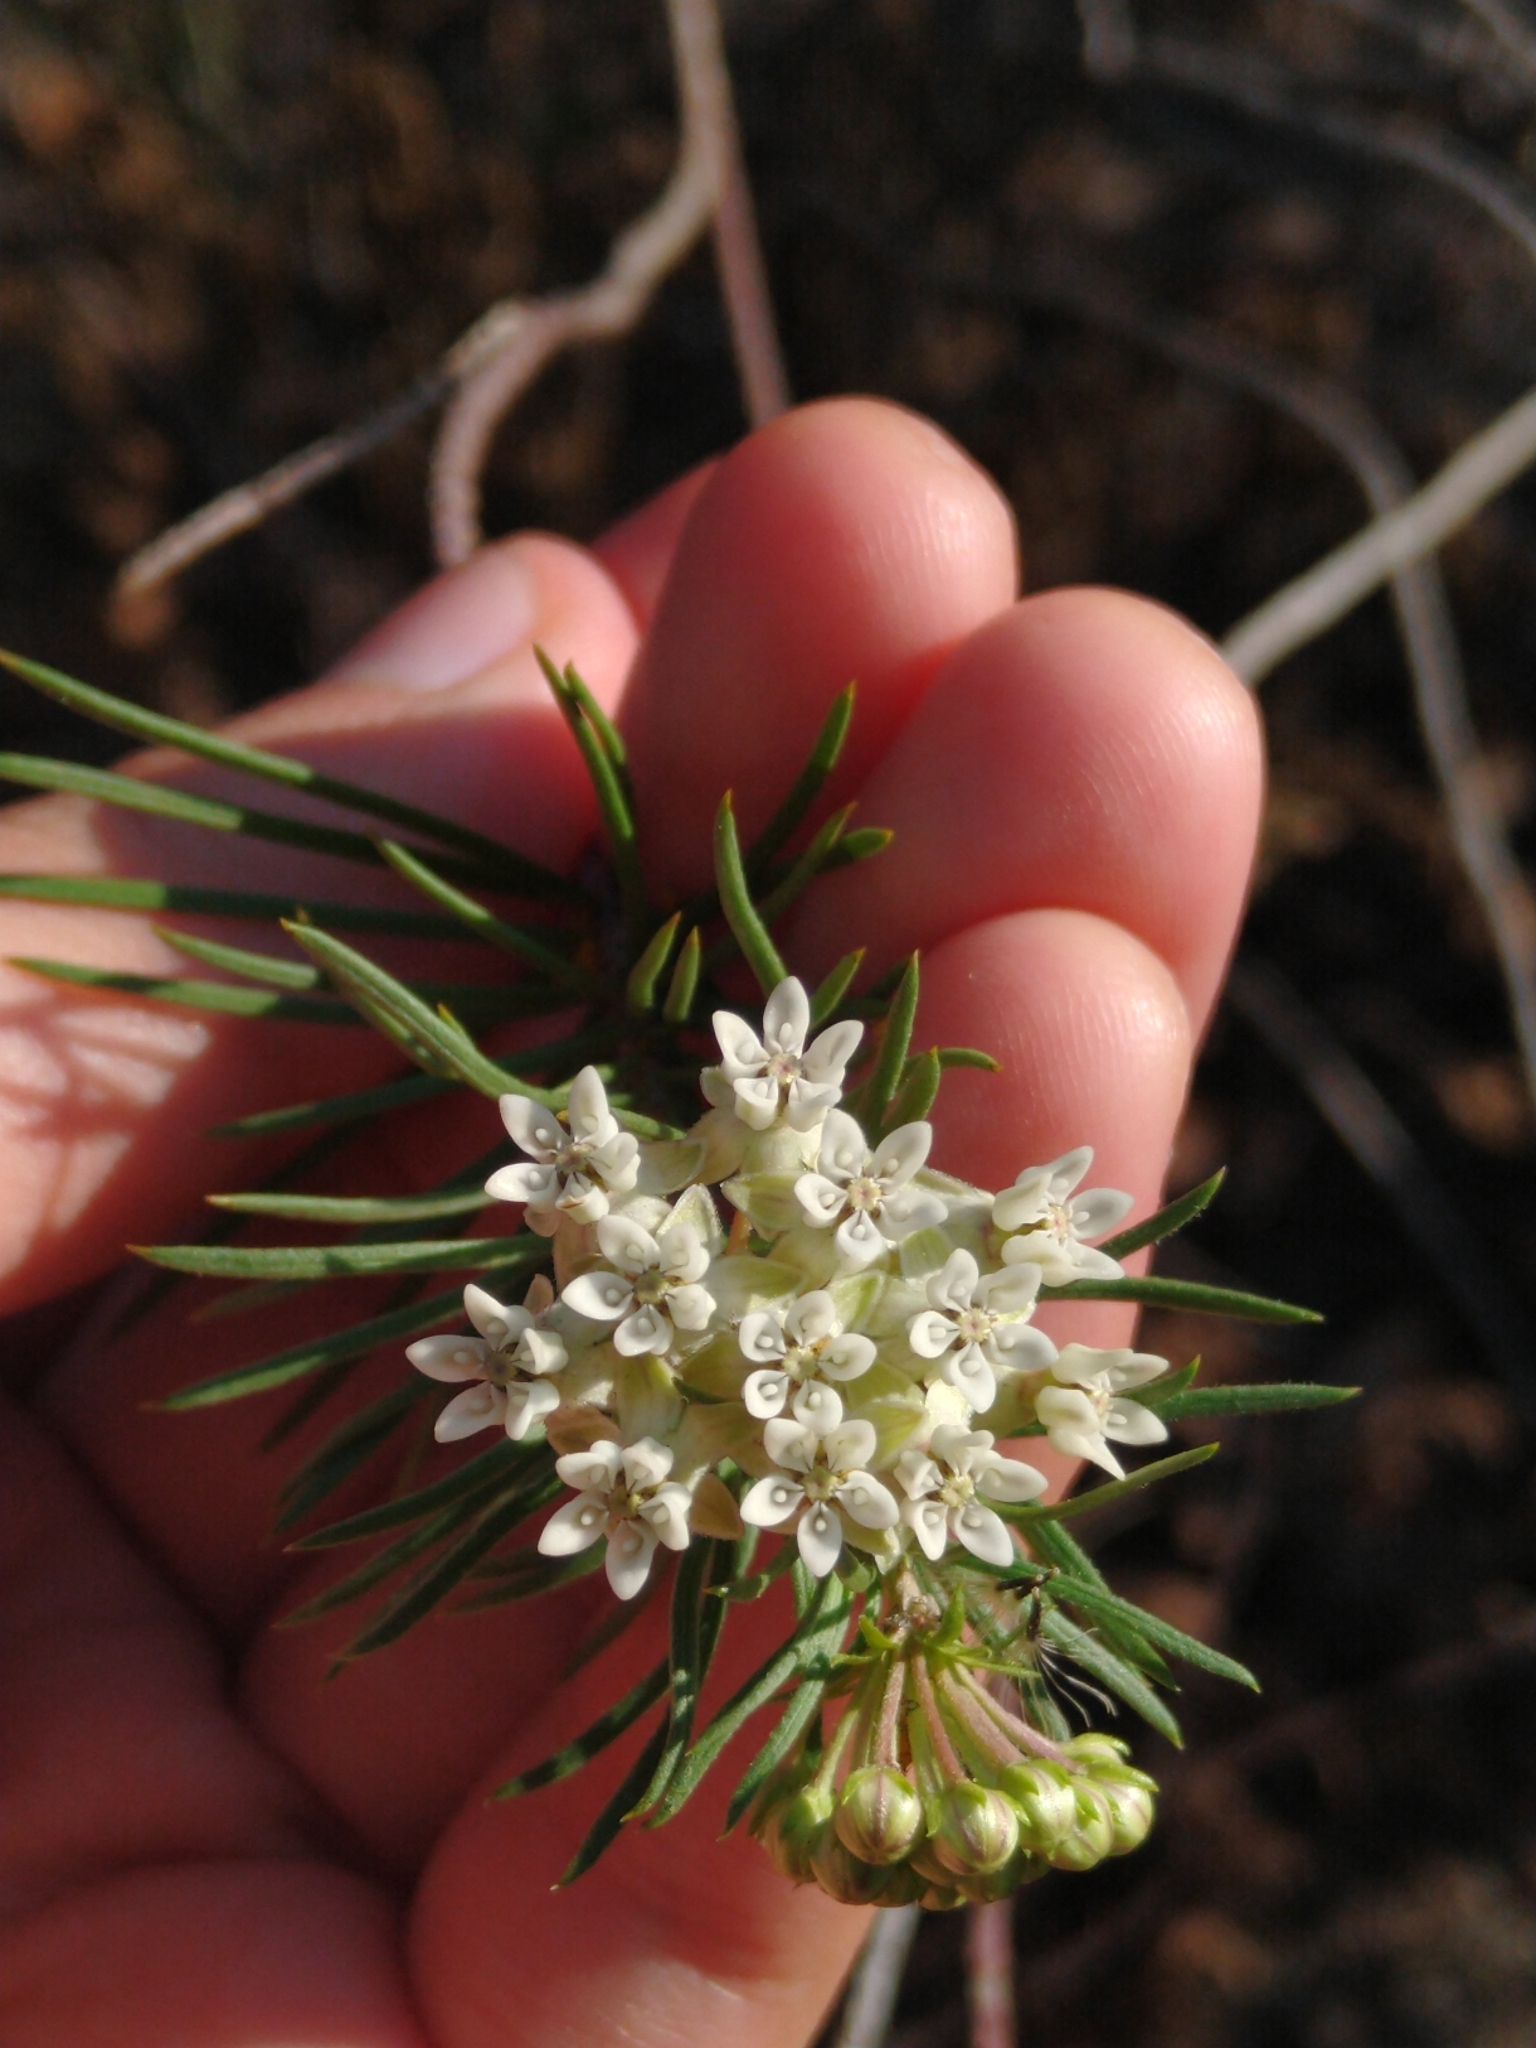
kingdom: Plantae
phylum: Tracheophyta
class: Magnoliopsida
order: Gentianales
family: Apocynaceae
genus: Asclepias
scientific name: Asclepias linaria
